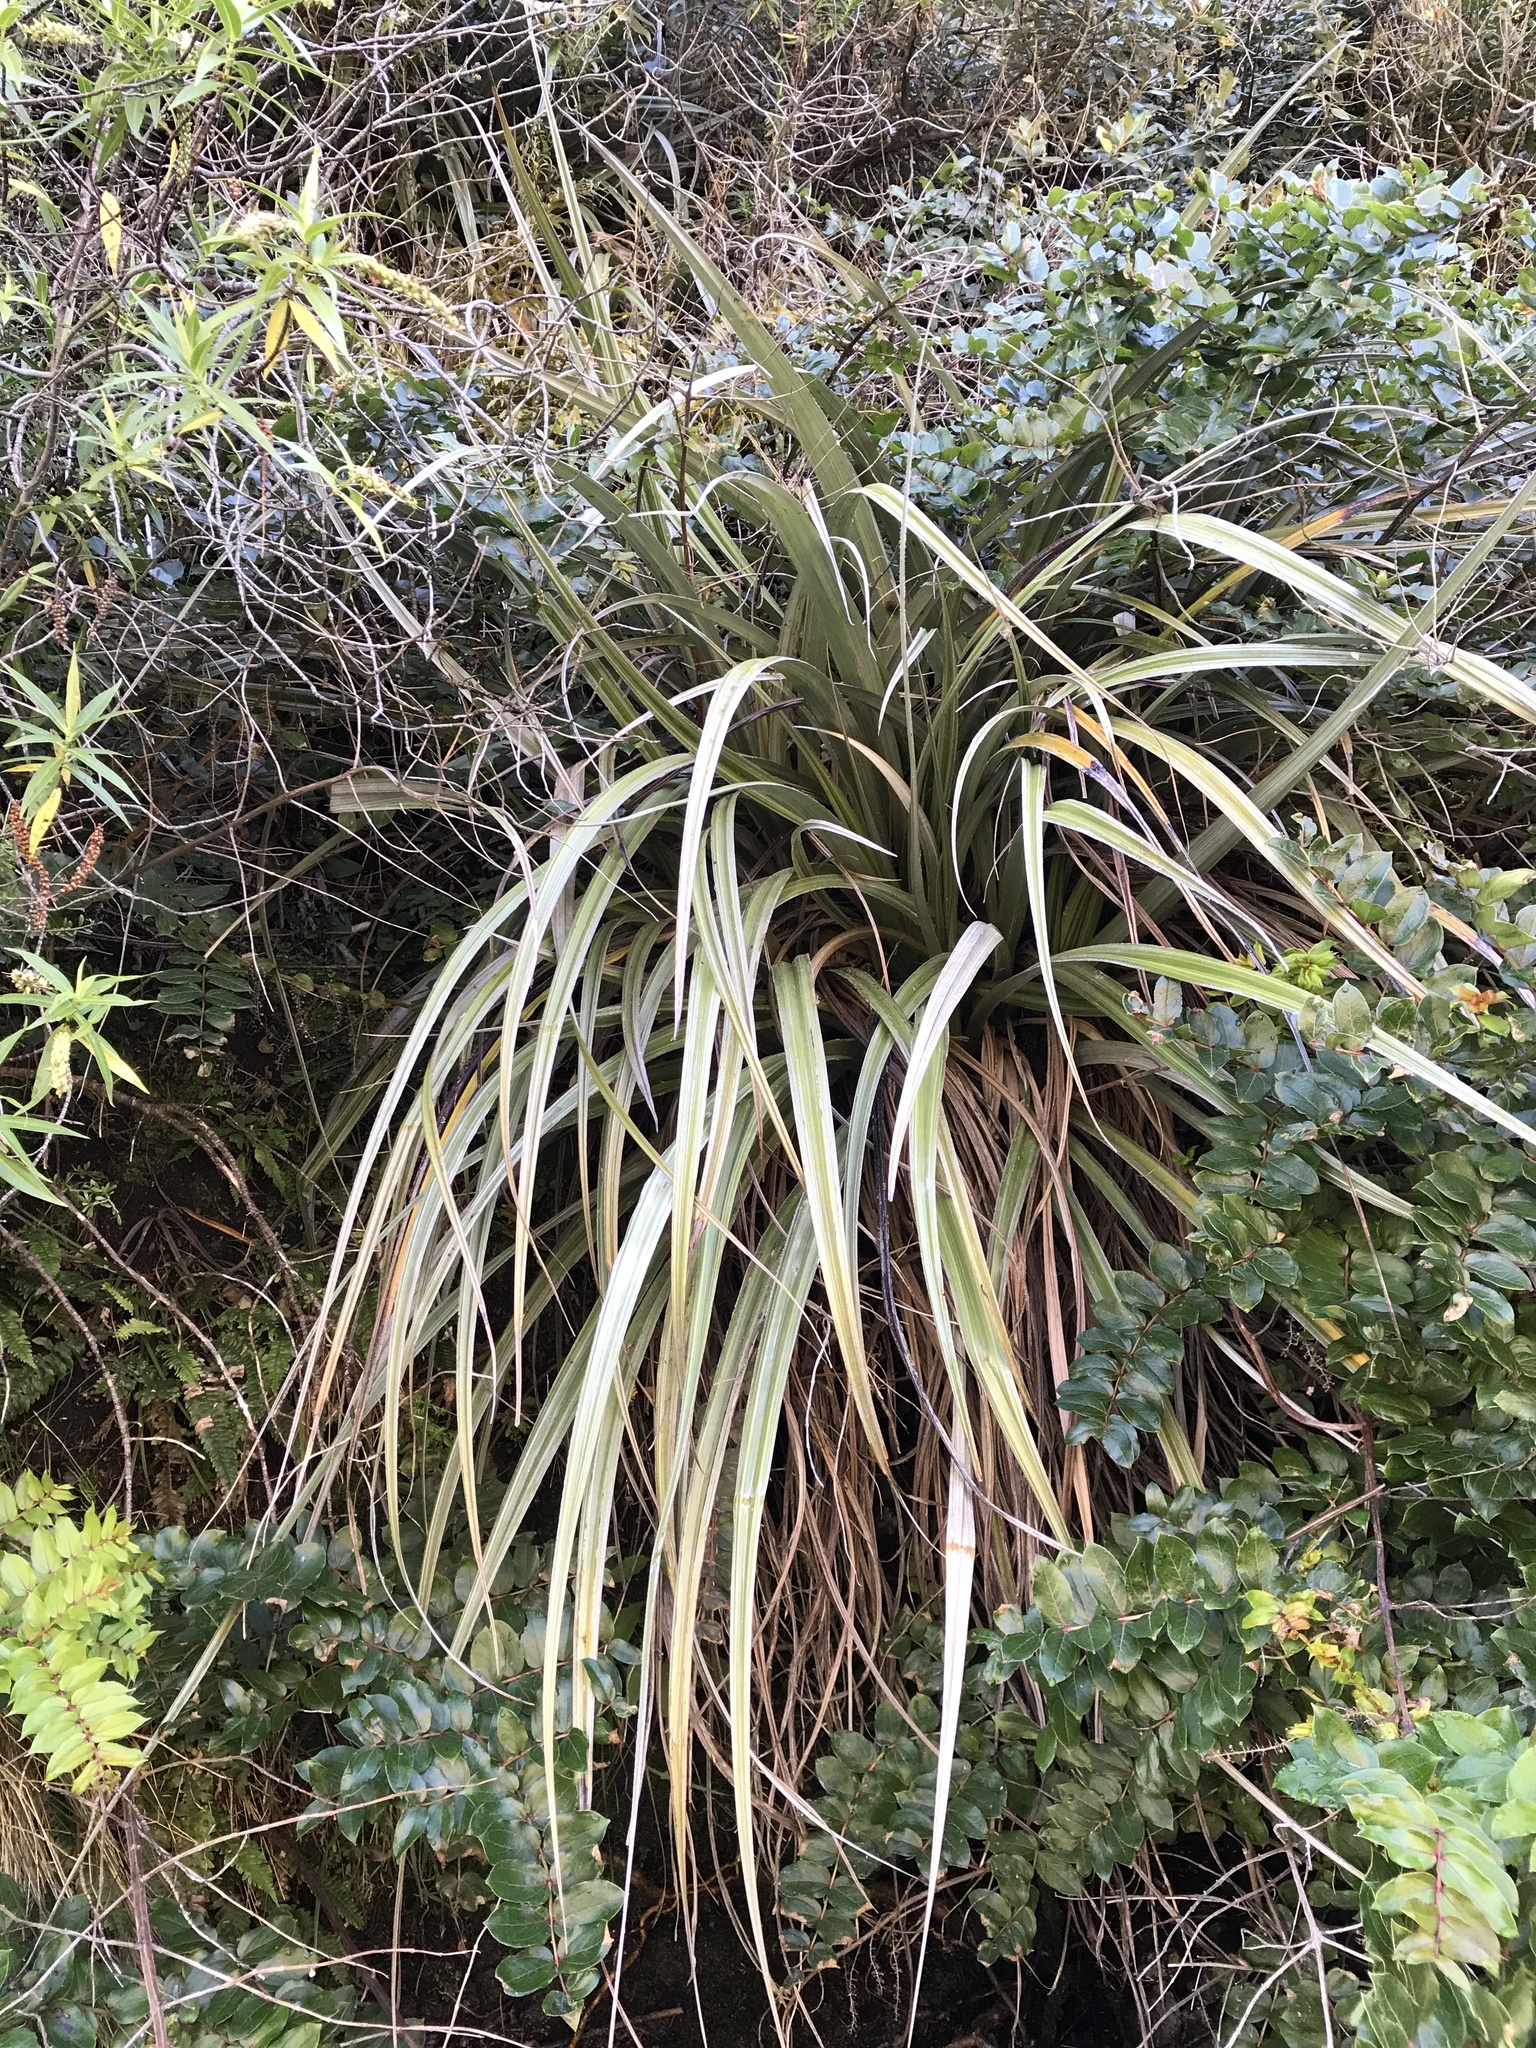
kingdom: Plantae
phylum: Tracheophyta
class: Liliopsida
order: Asparagales
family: Asteliaceae
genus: Astelia
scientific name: Astelia nervosa
